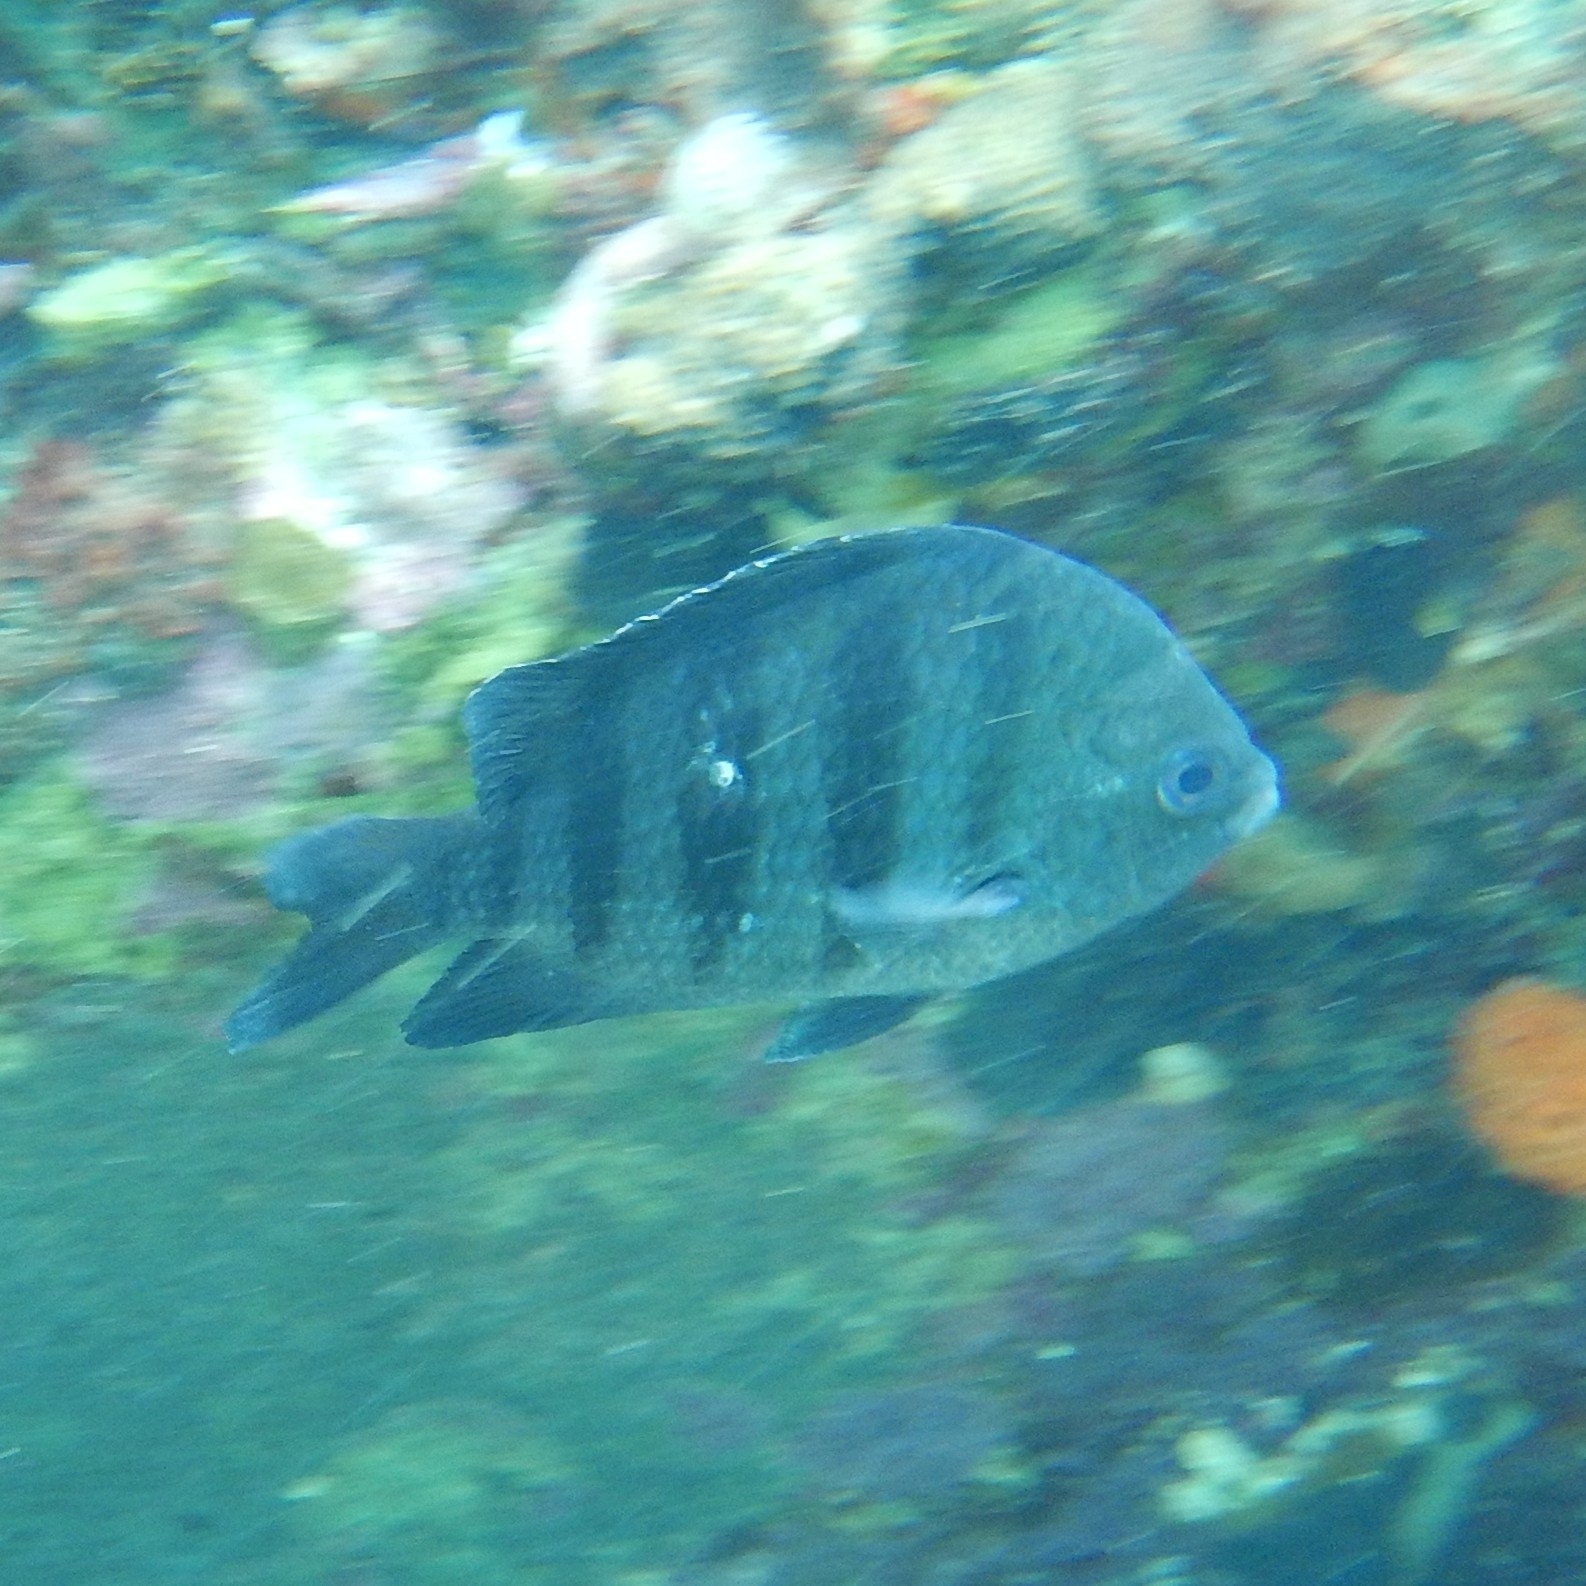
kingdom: Animalia
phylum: Chordata
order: Perciformes
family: Pomacentridae
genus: Abudefduf
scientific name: Abudefduf saxatilis
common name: Sergeant major
